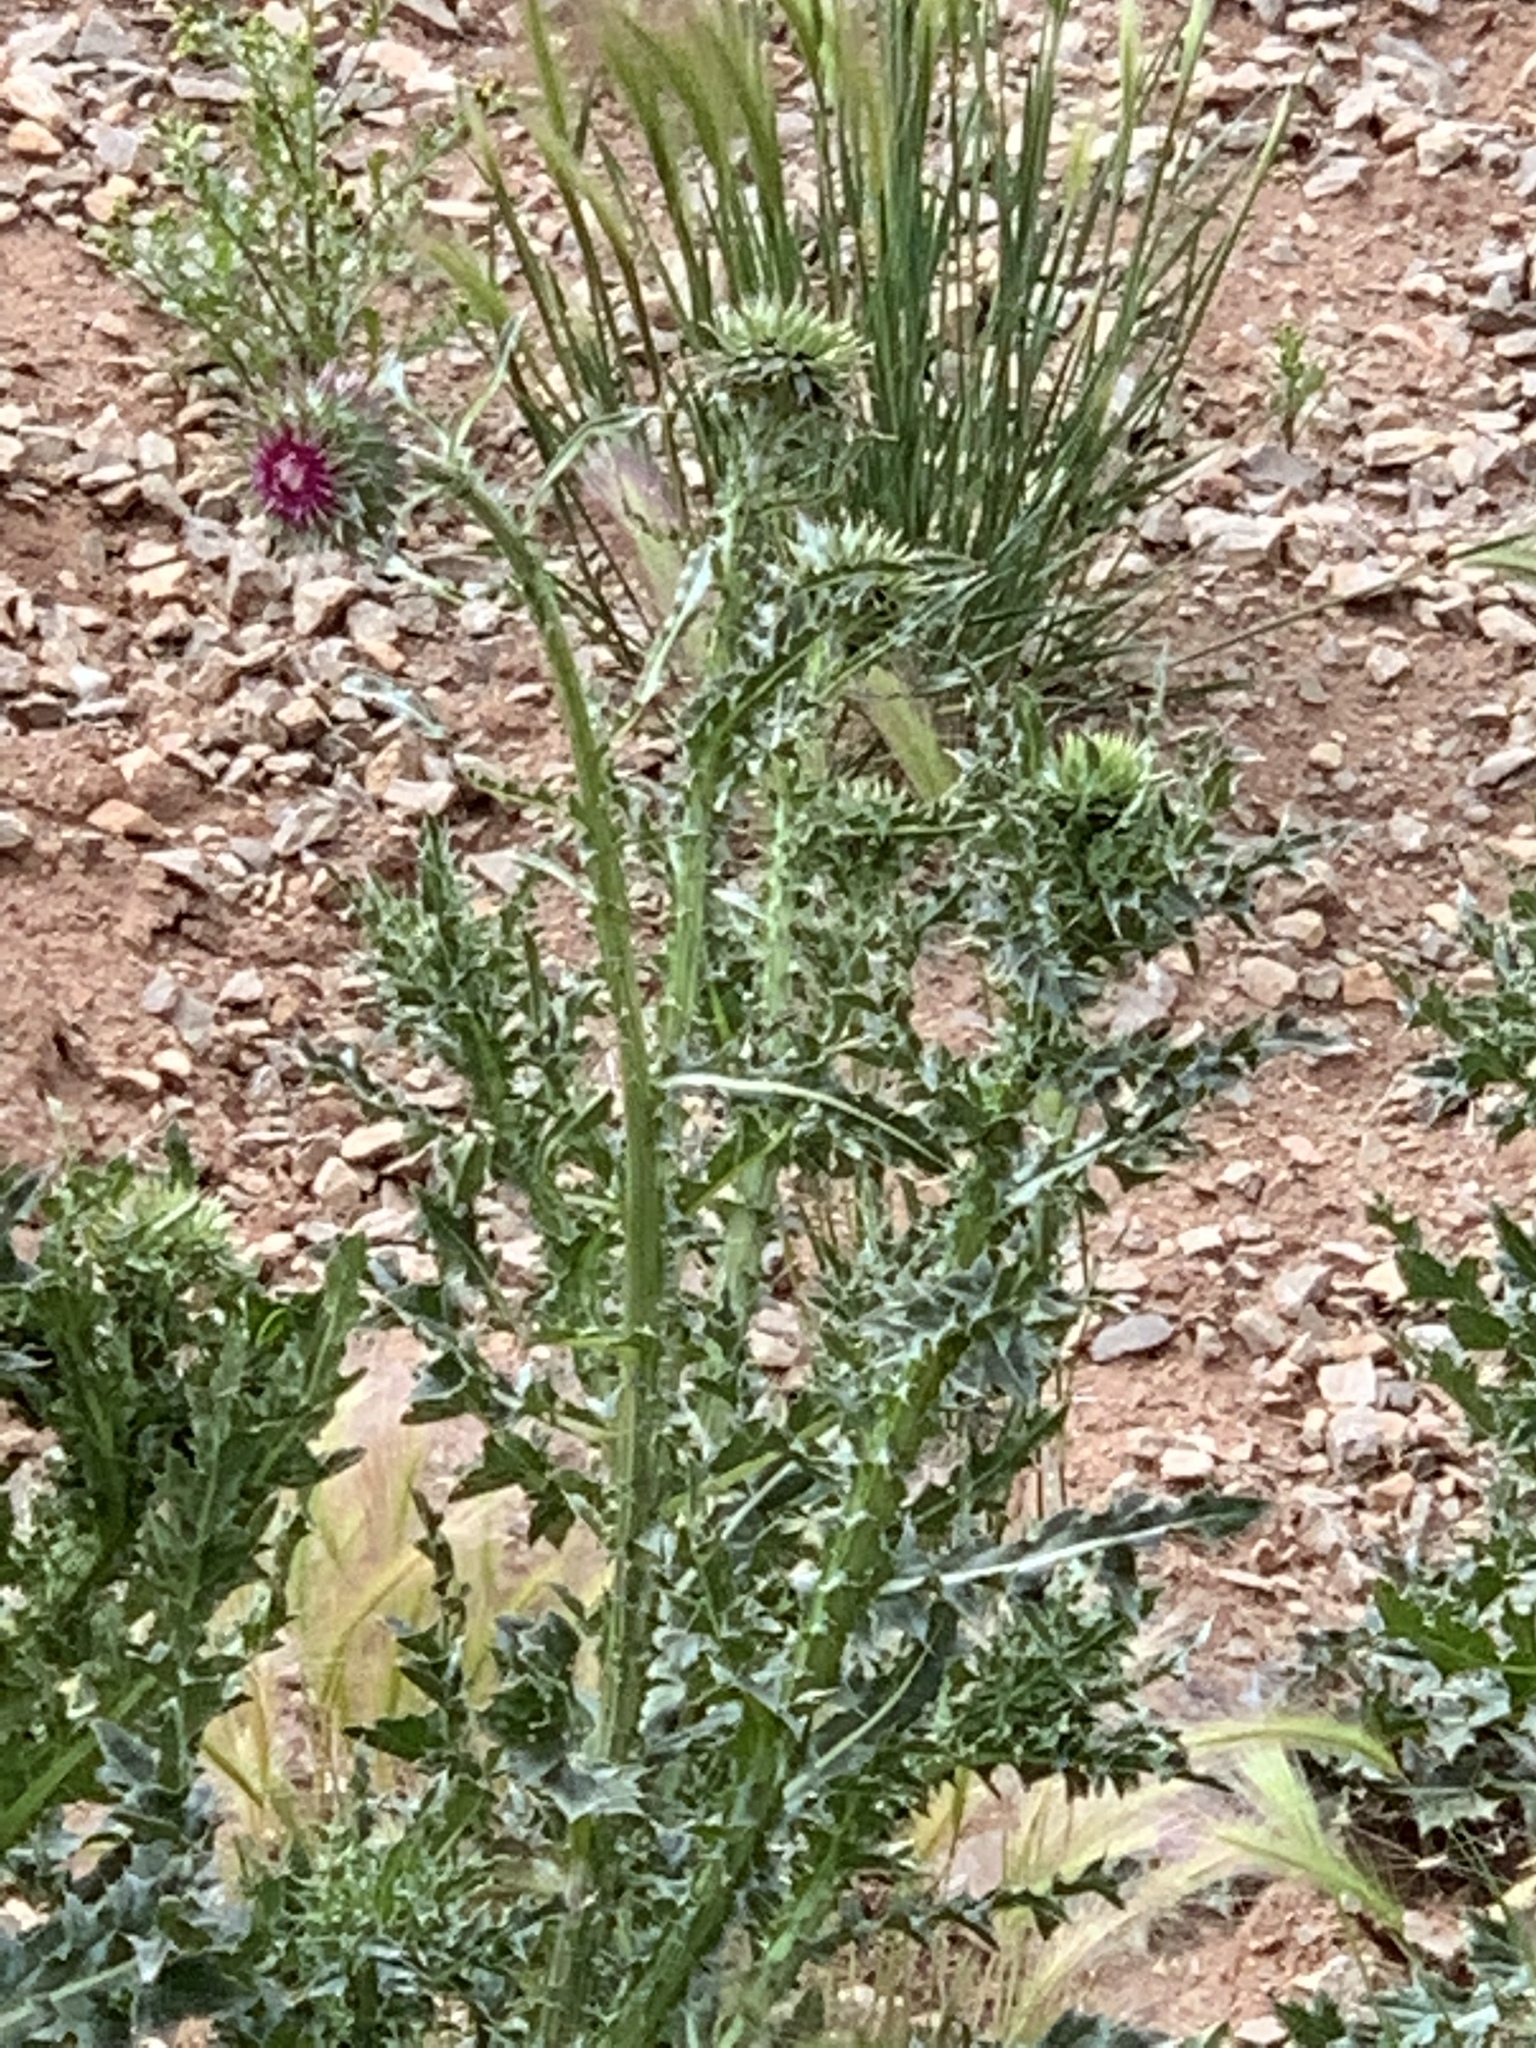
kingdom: Plantae
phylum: Tracheophyta
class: Magnoliopsida
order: Asterales
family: Asteraceae
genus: Carduus
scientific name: Carduus nutans
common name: Musk thistle
